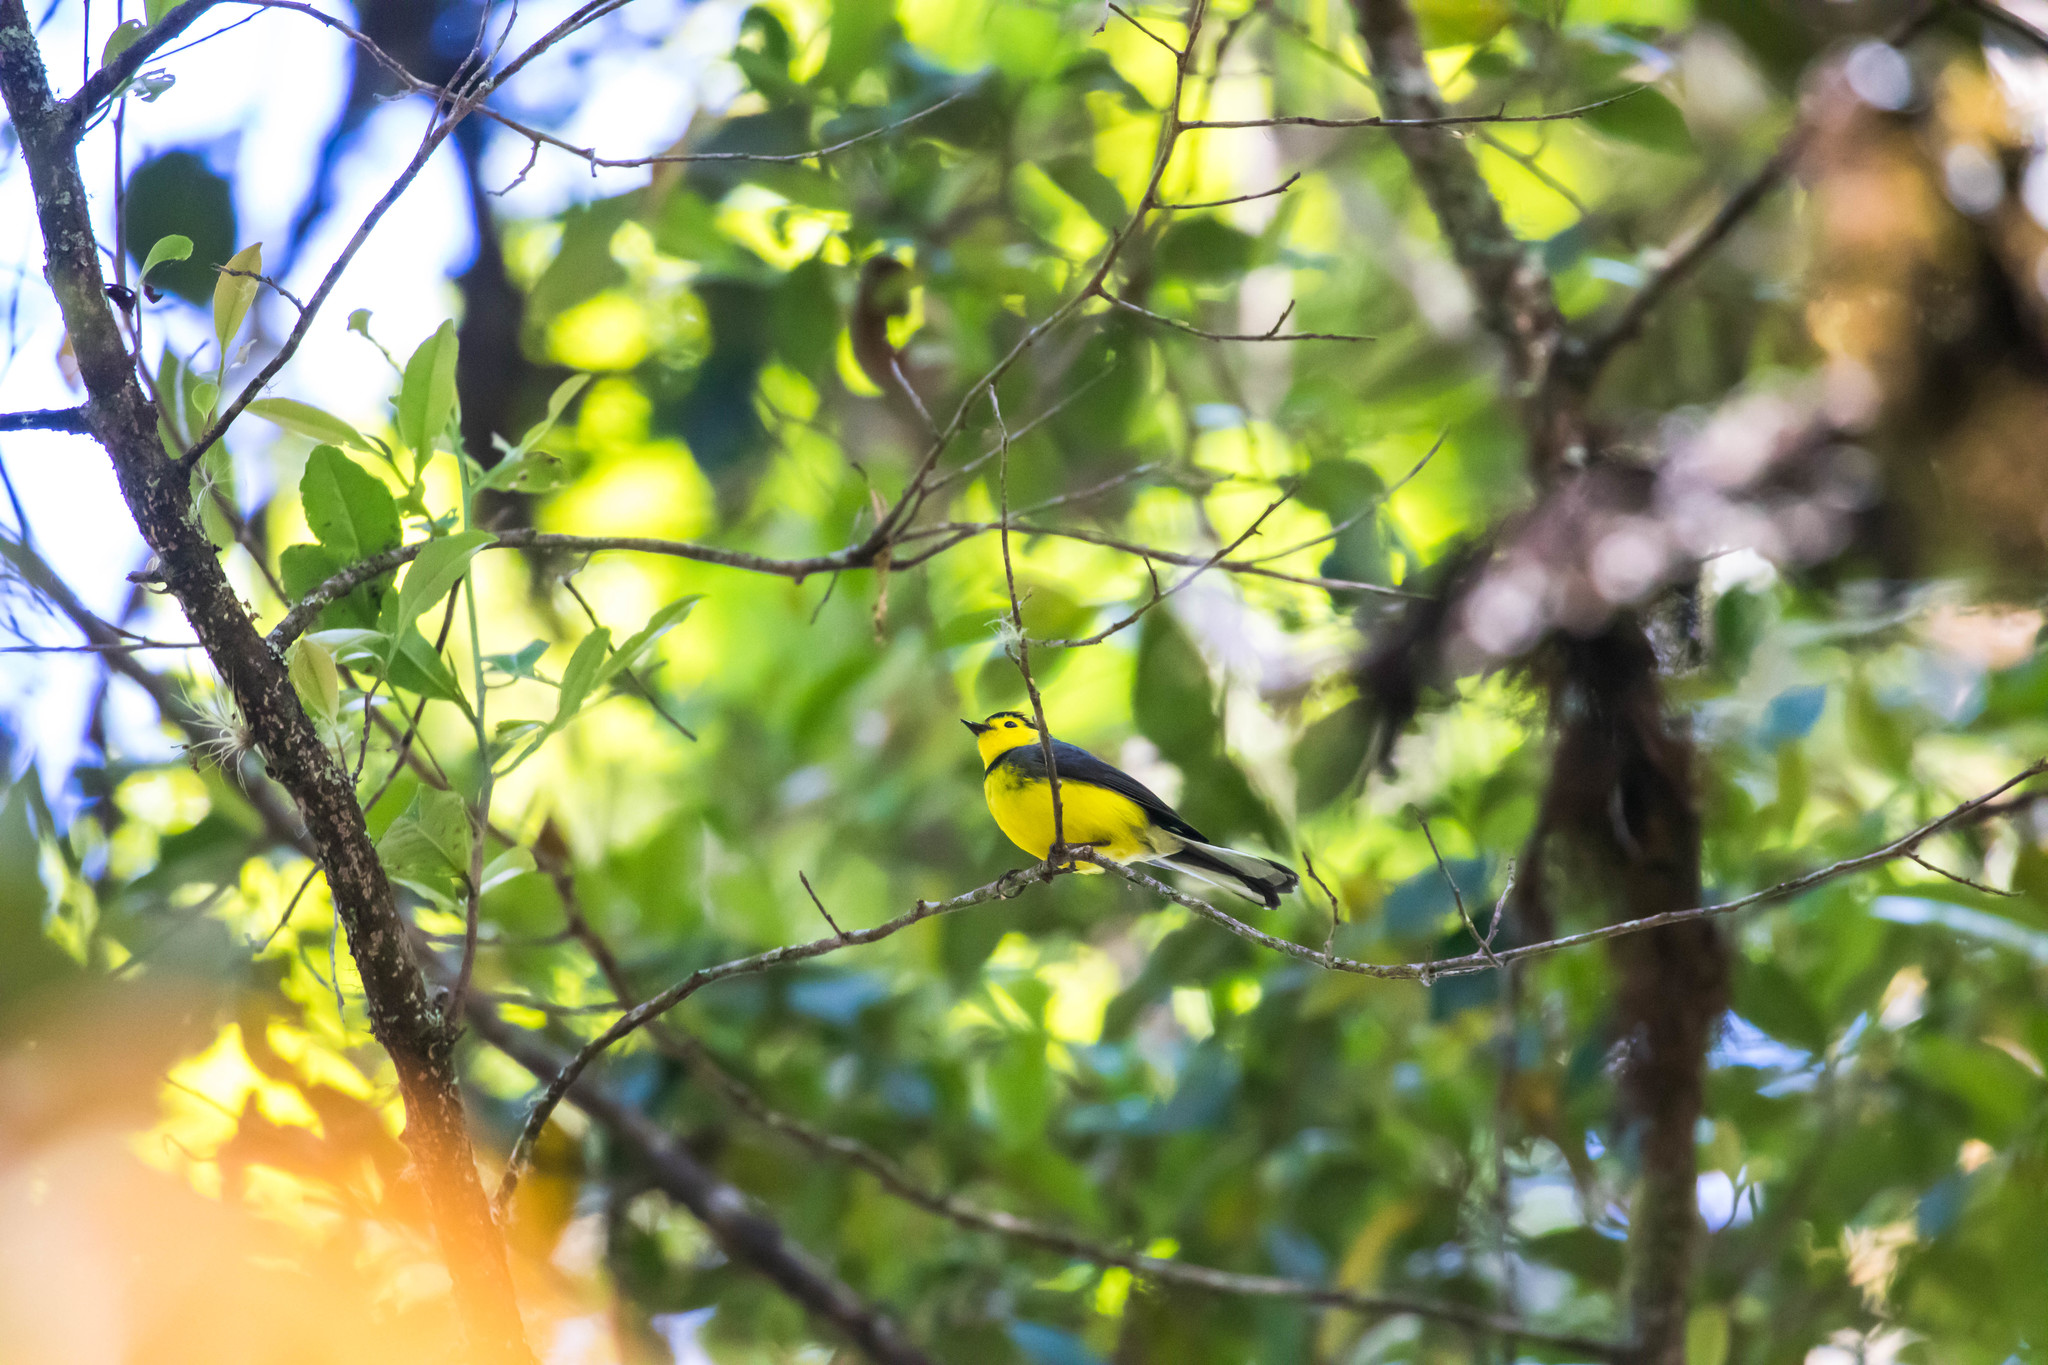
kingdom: Animalia
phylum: Chordata
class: Aves
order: Passeriformes
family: Parulidae
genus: Myioborus
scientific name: Myioborus torquatus
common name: Collared whitestart
